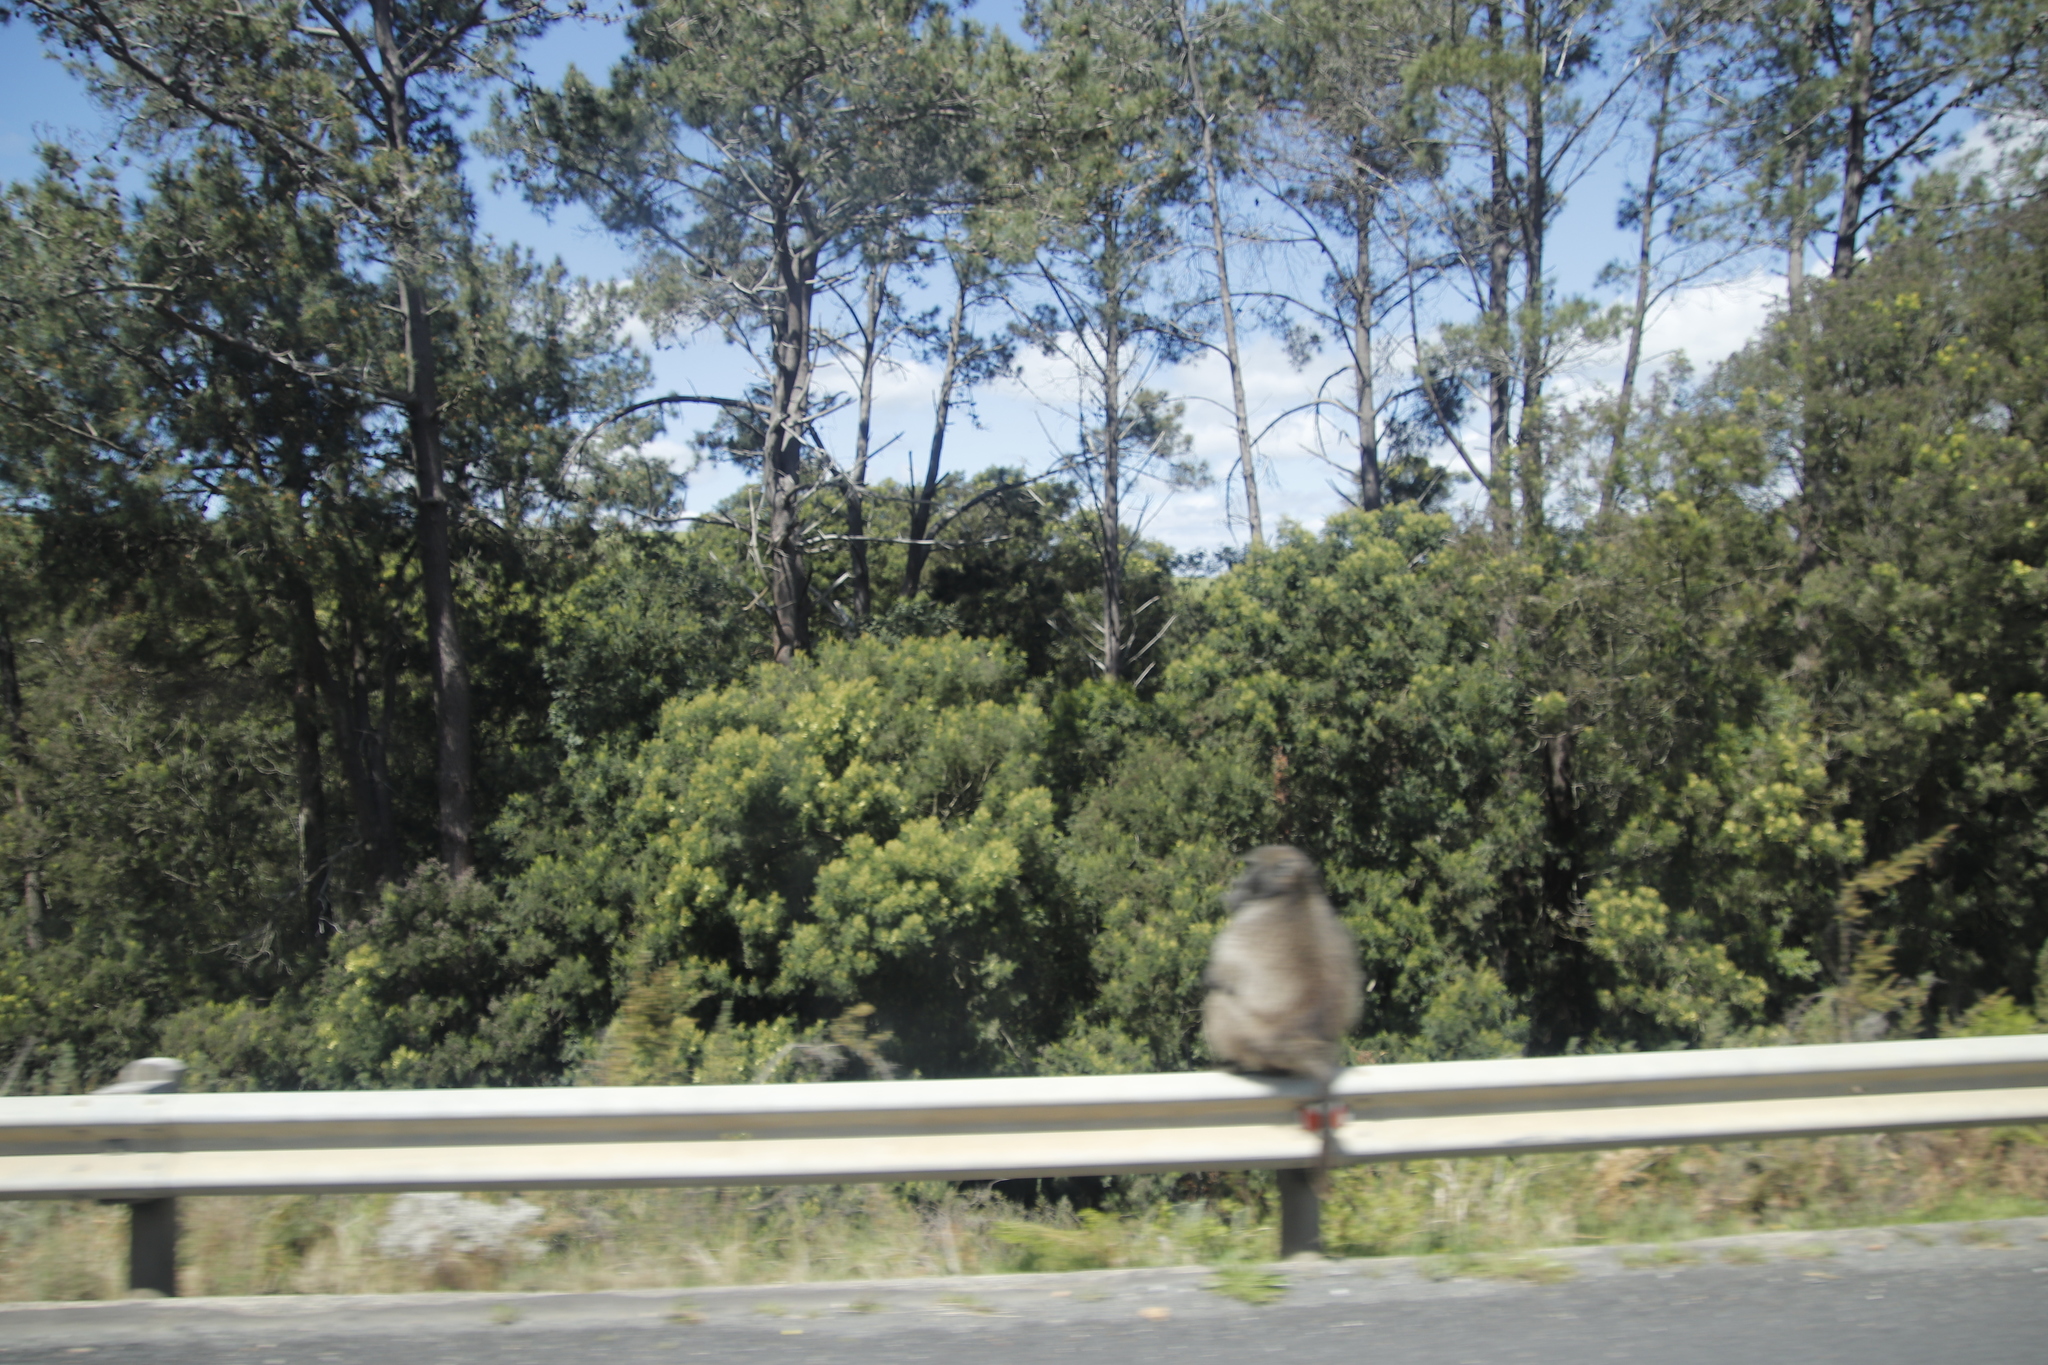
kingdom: Animalia
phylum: Chordata
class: Mammalia
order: Primates
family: Cercopithecidae
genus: Papio
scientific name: Papio ursinus
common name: Chacma baboon
